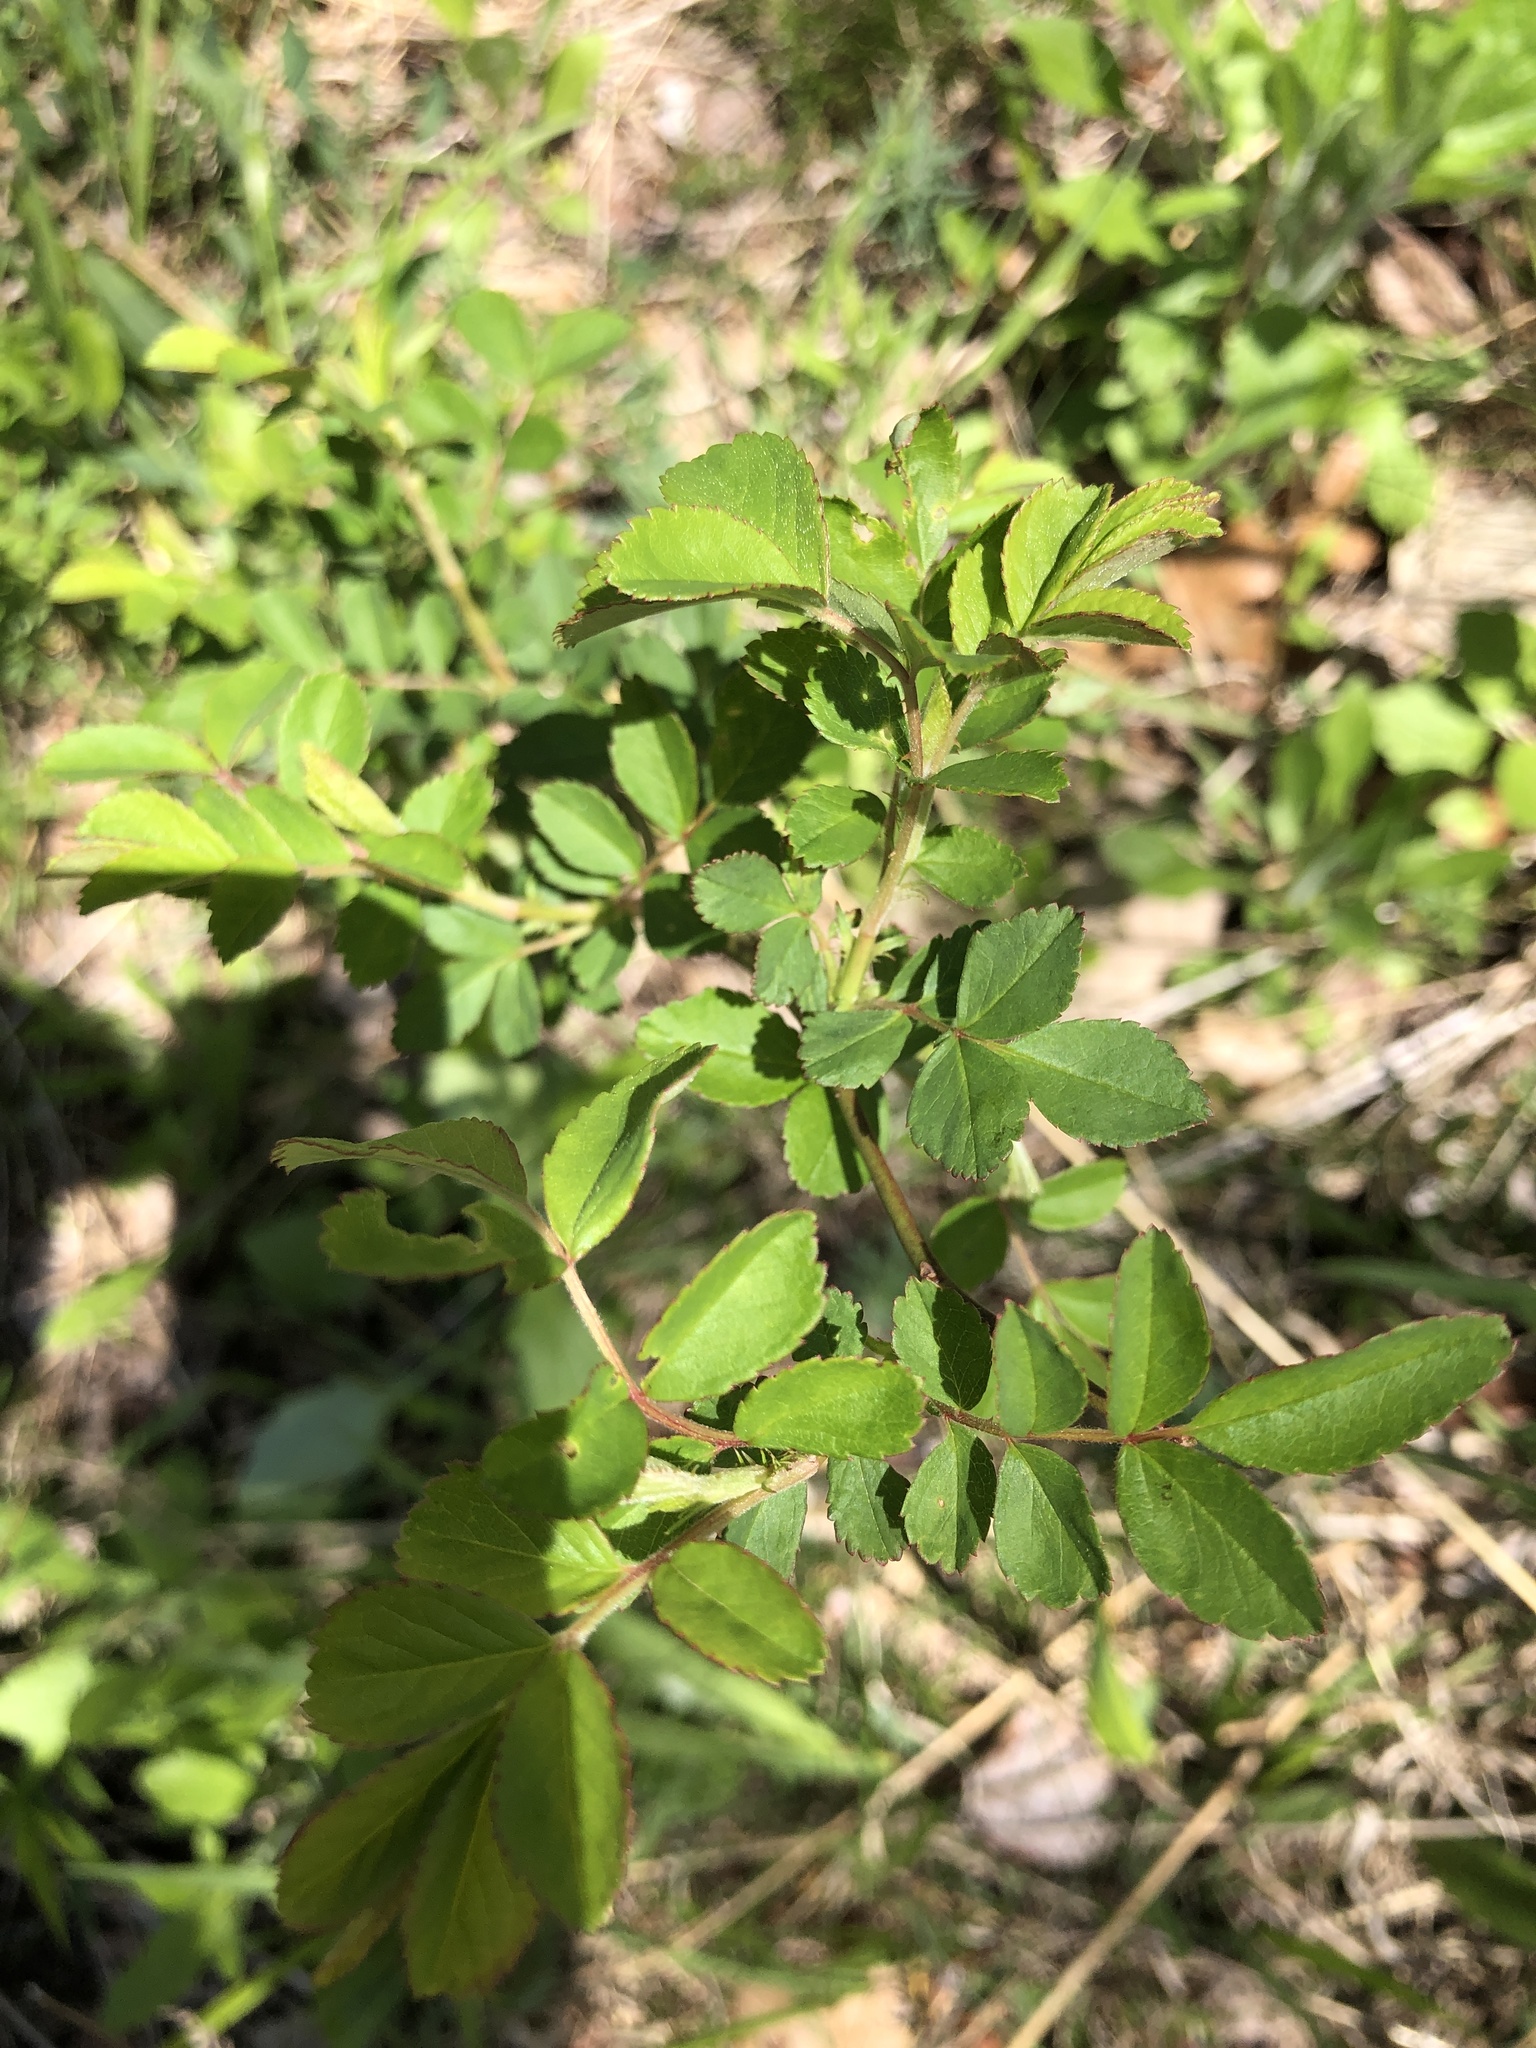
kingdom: Plantae
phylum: Tracheophyta
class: Magnoliopsida
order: Rosales
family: Rosaceae
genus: Rosa
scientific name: Rosa multiflora
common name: Multiflora rose
